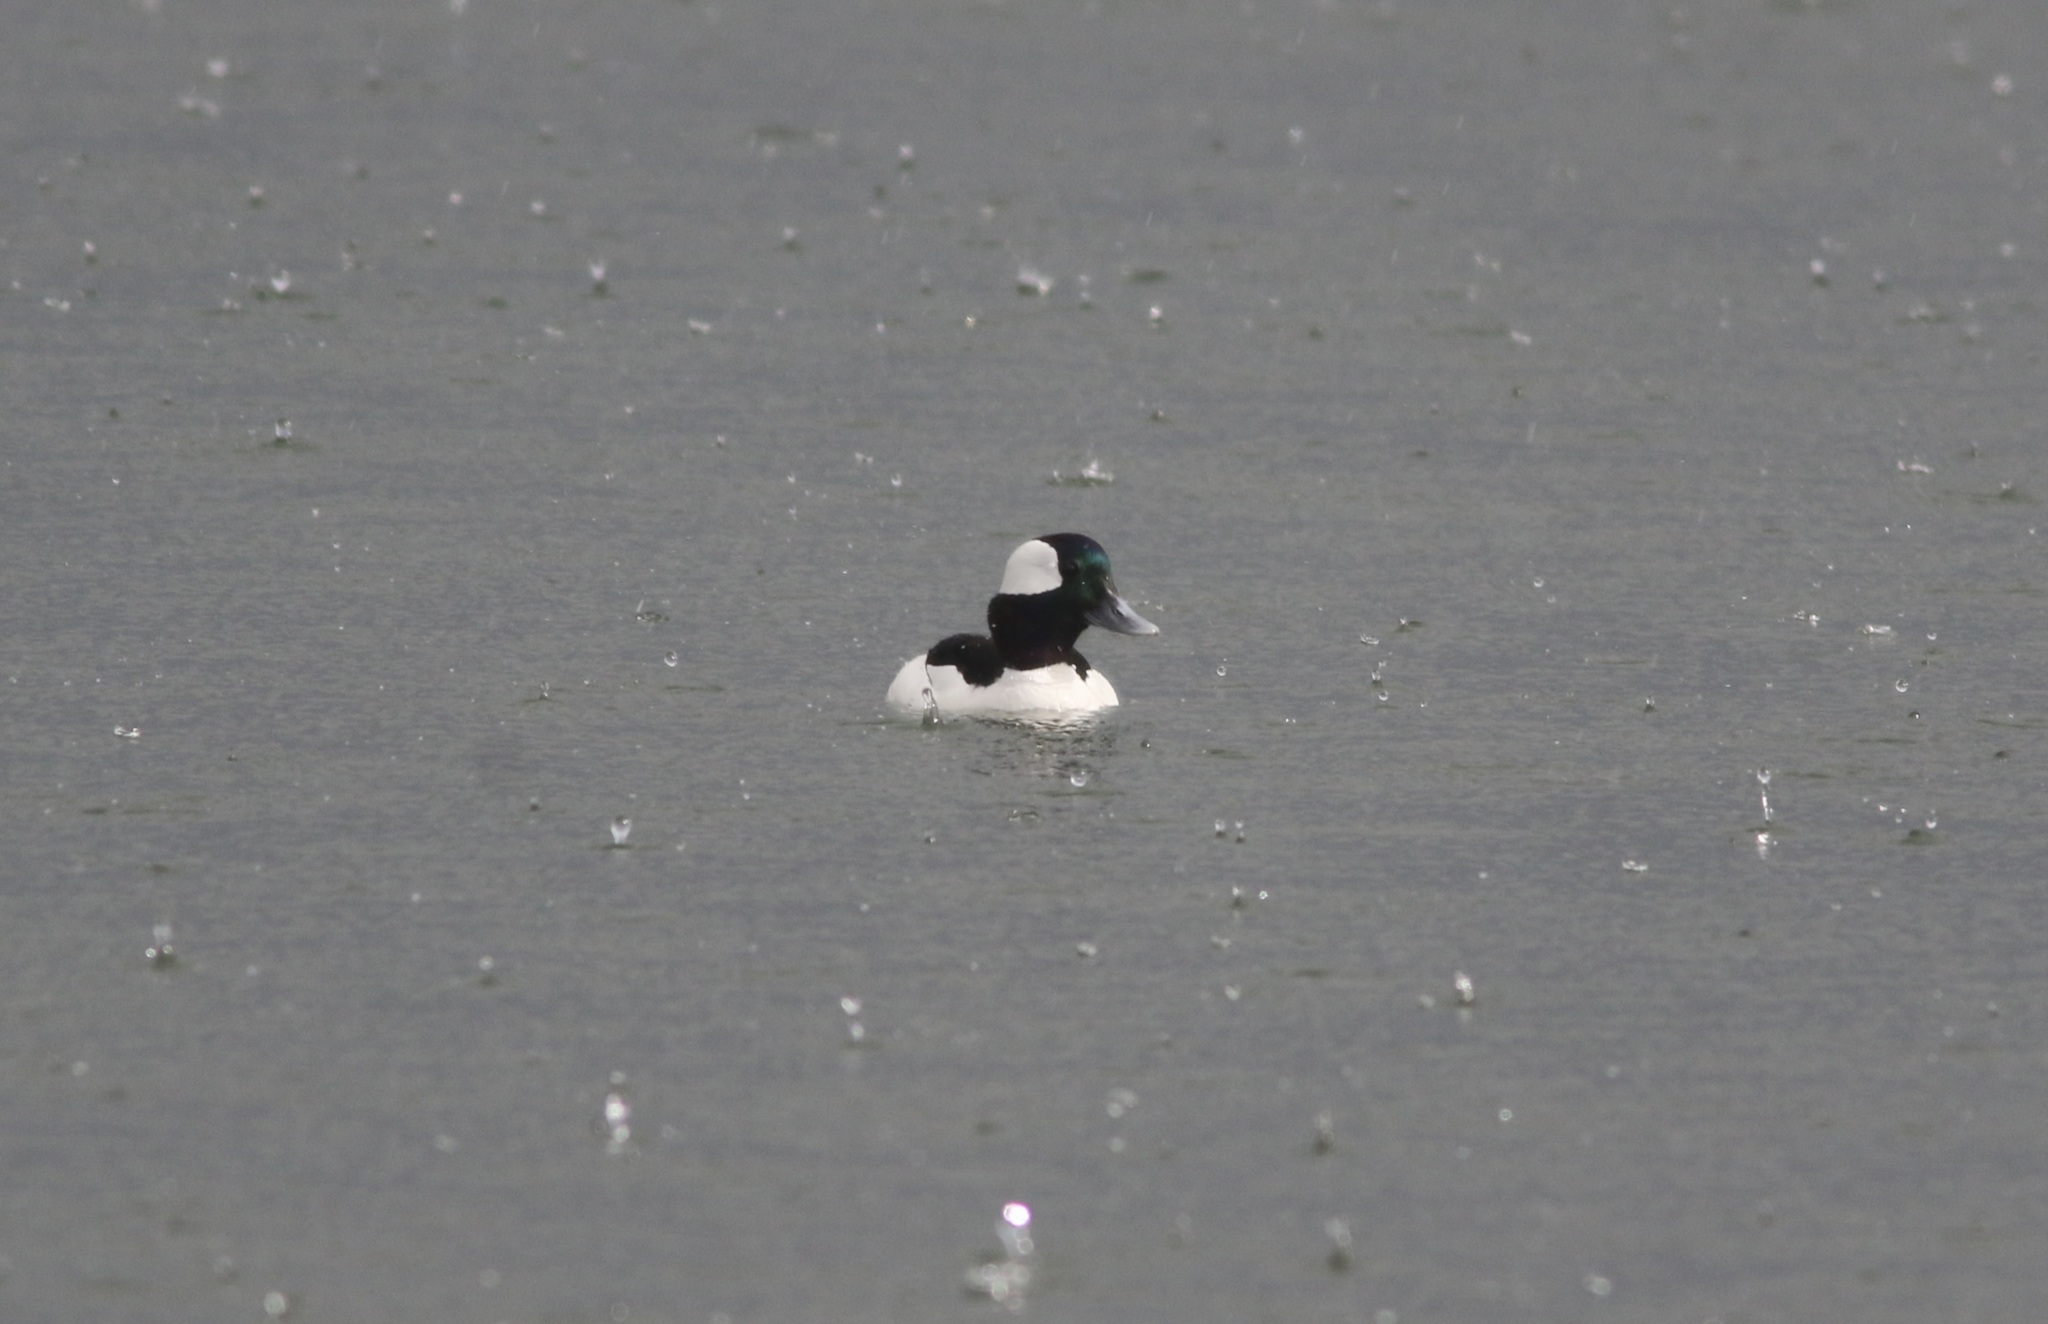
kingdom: Animalia
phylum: Chordata
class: Aves
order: Anseriformes
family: Anatidae
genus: Bucephala
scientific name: Bucephala albeola
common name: Bufflehead
